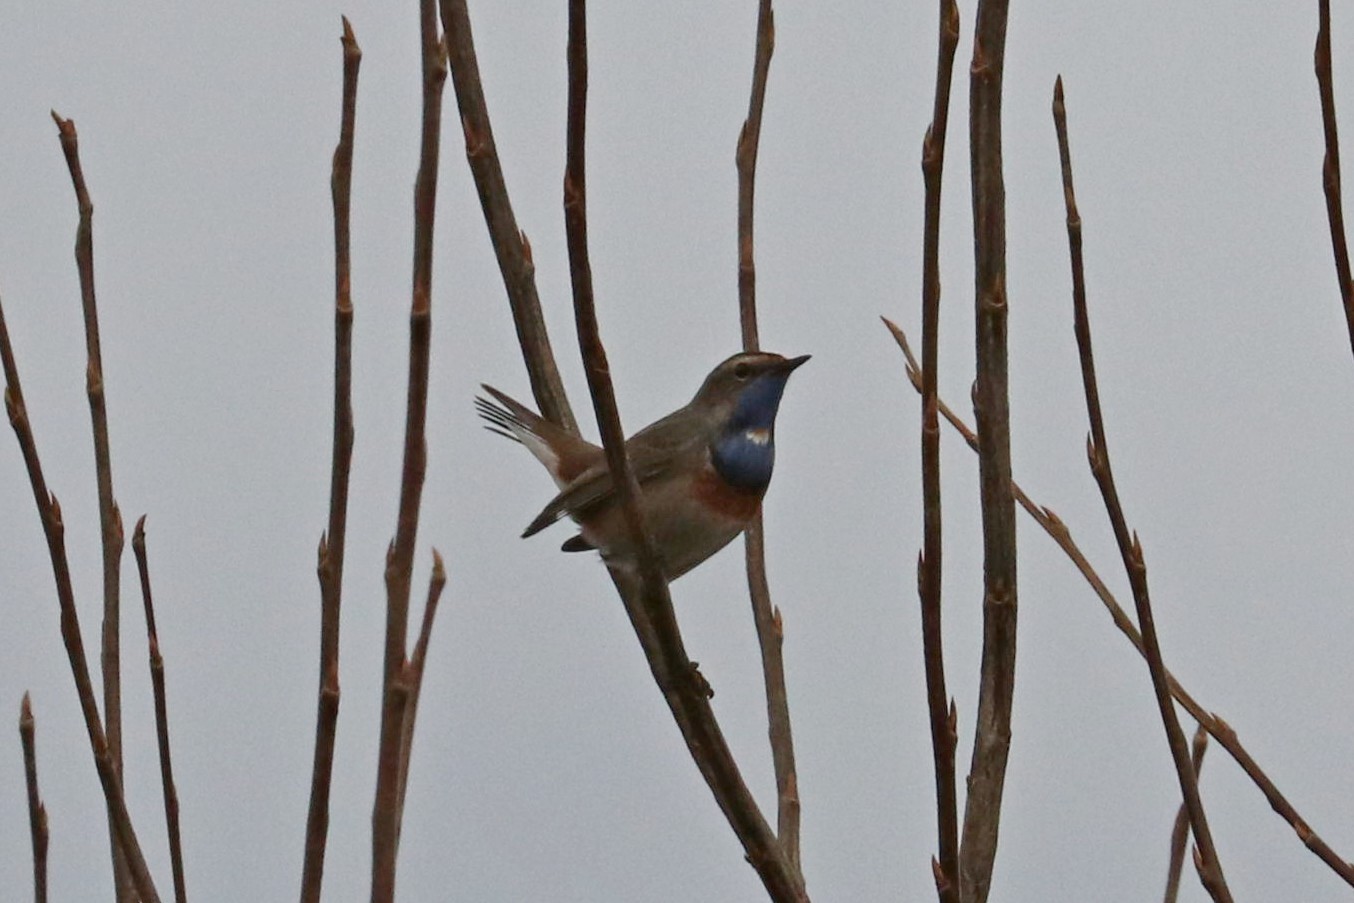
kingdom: Animalia
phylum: Chordata
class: Aves
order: Passeriformes
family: Muscicapidae
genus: Luscinia
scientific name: Luscinia svecica
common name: Bluethroat
